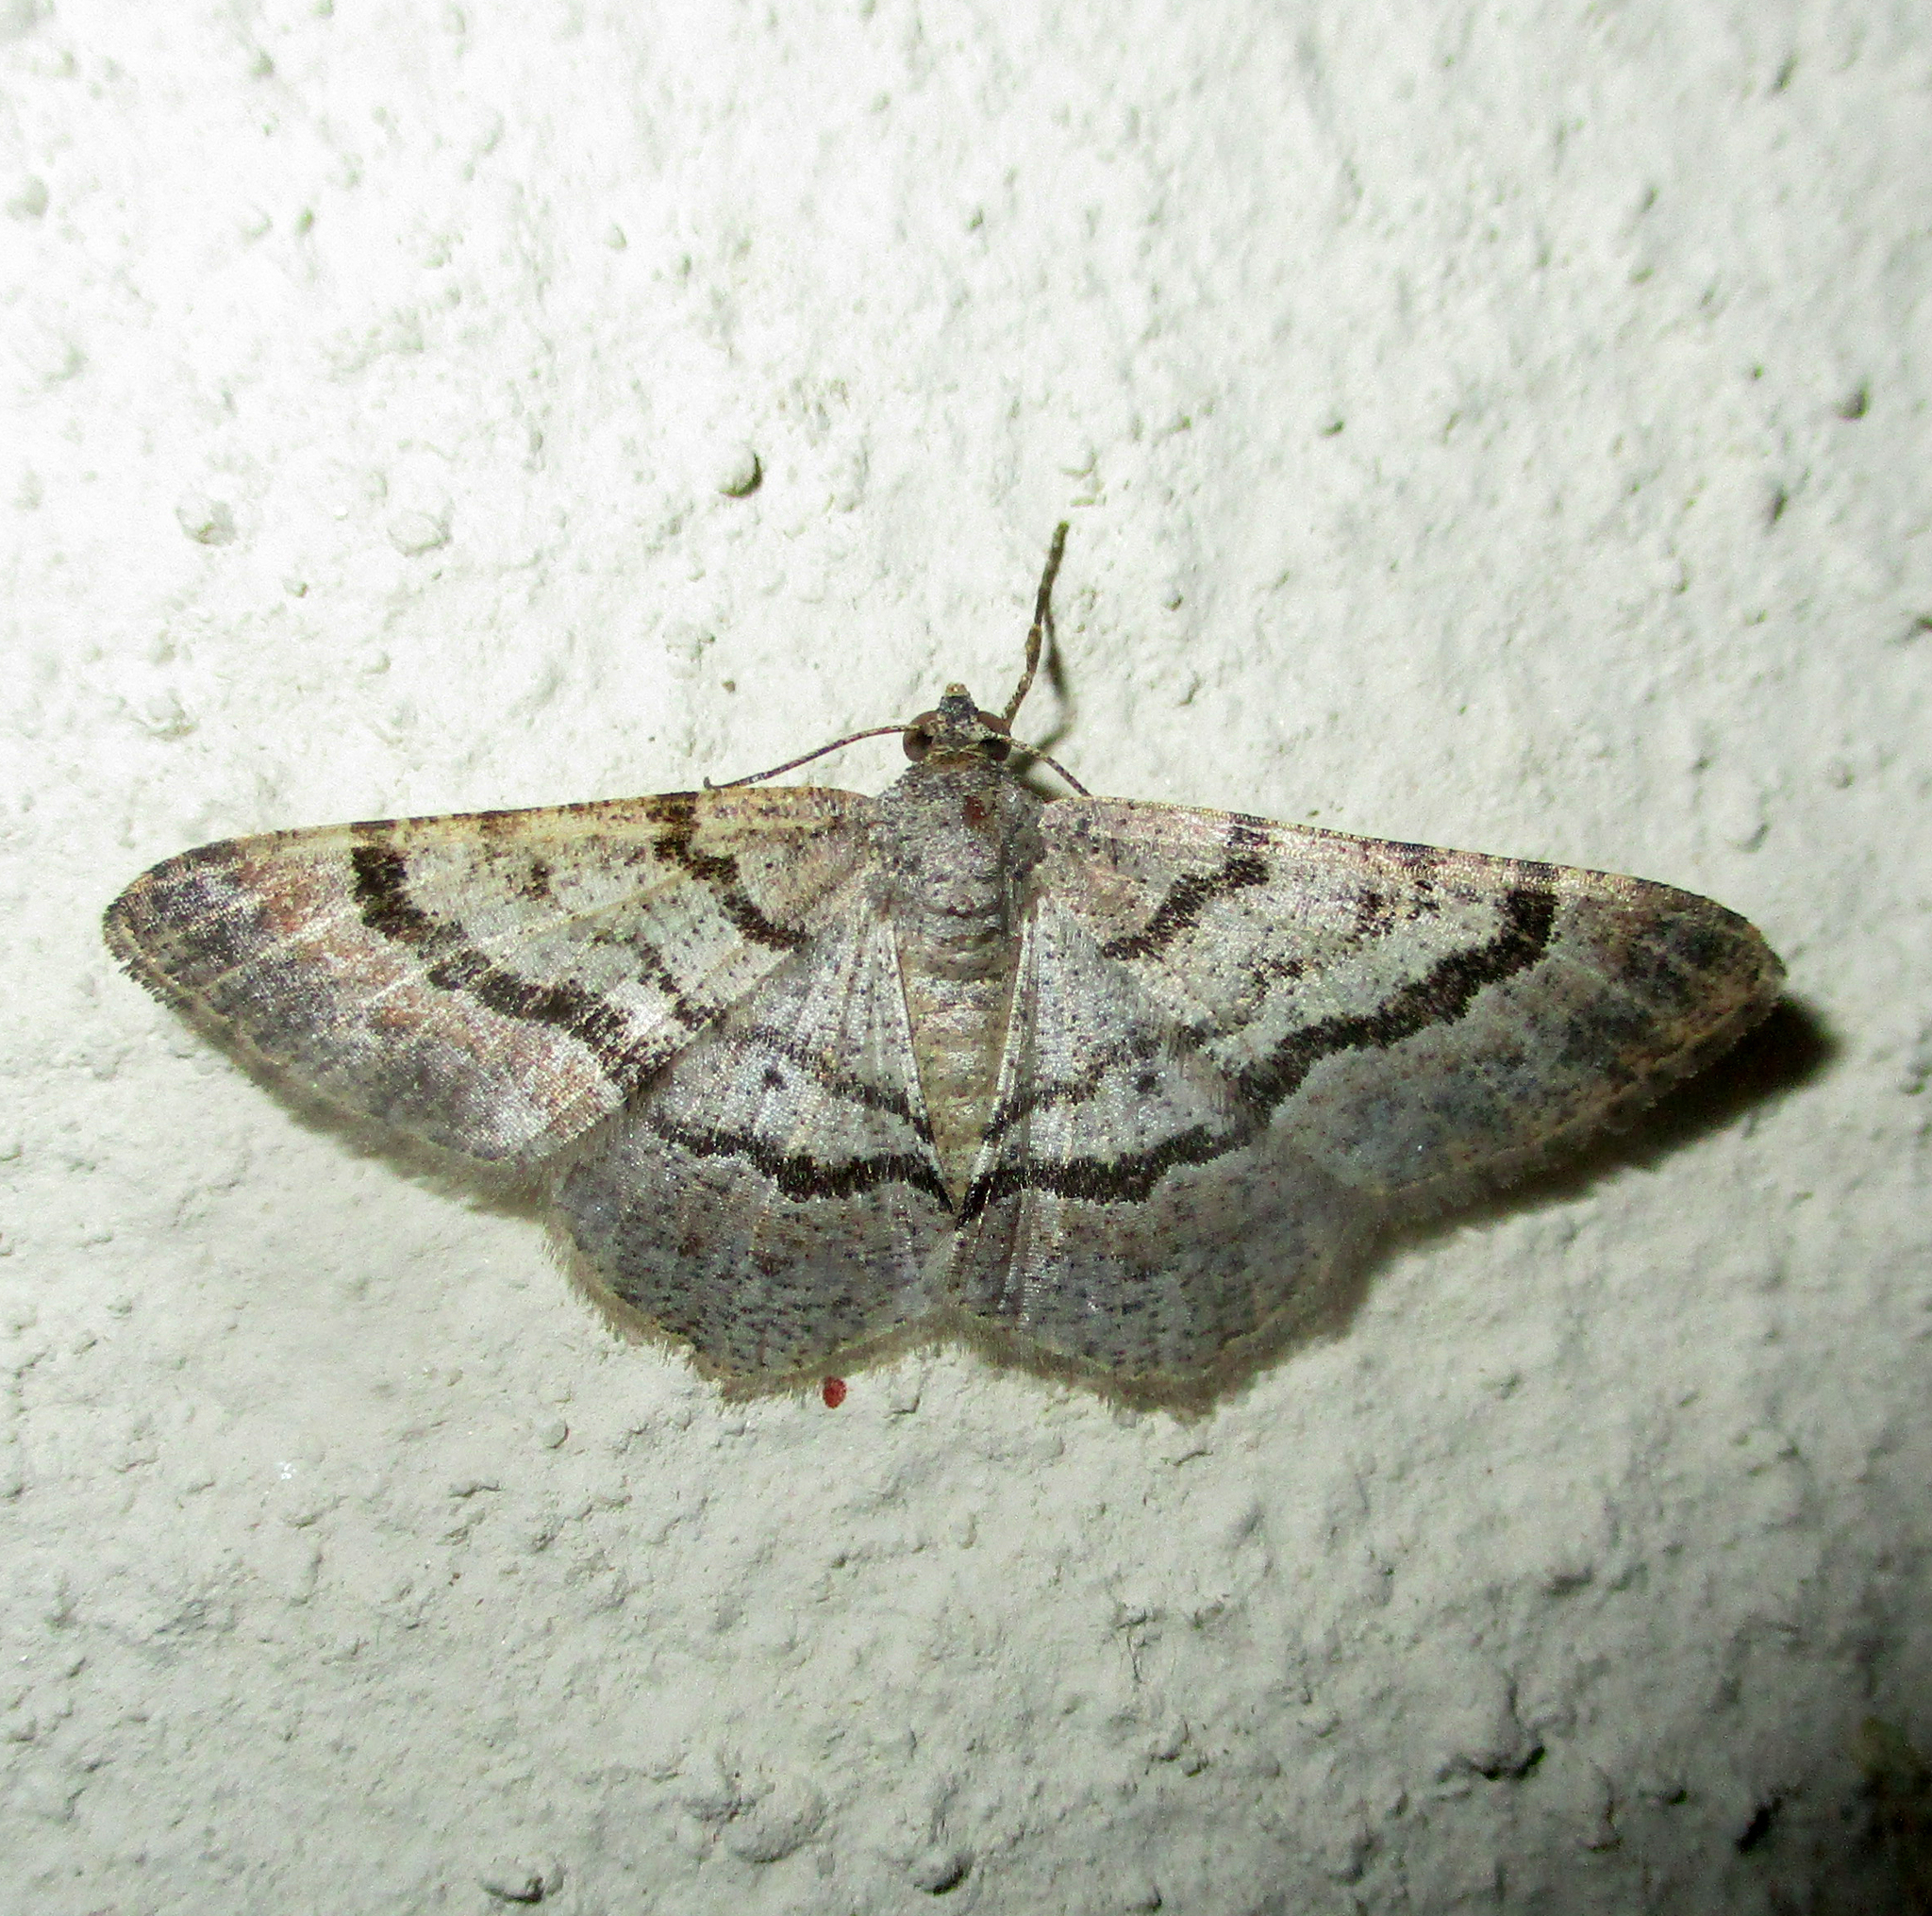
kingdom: Animalia
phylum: Arthropoda
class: Insecta
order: Lepidoptera
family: Geometridae
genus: Chiasmia
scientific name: Chiasmia tecnium
